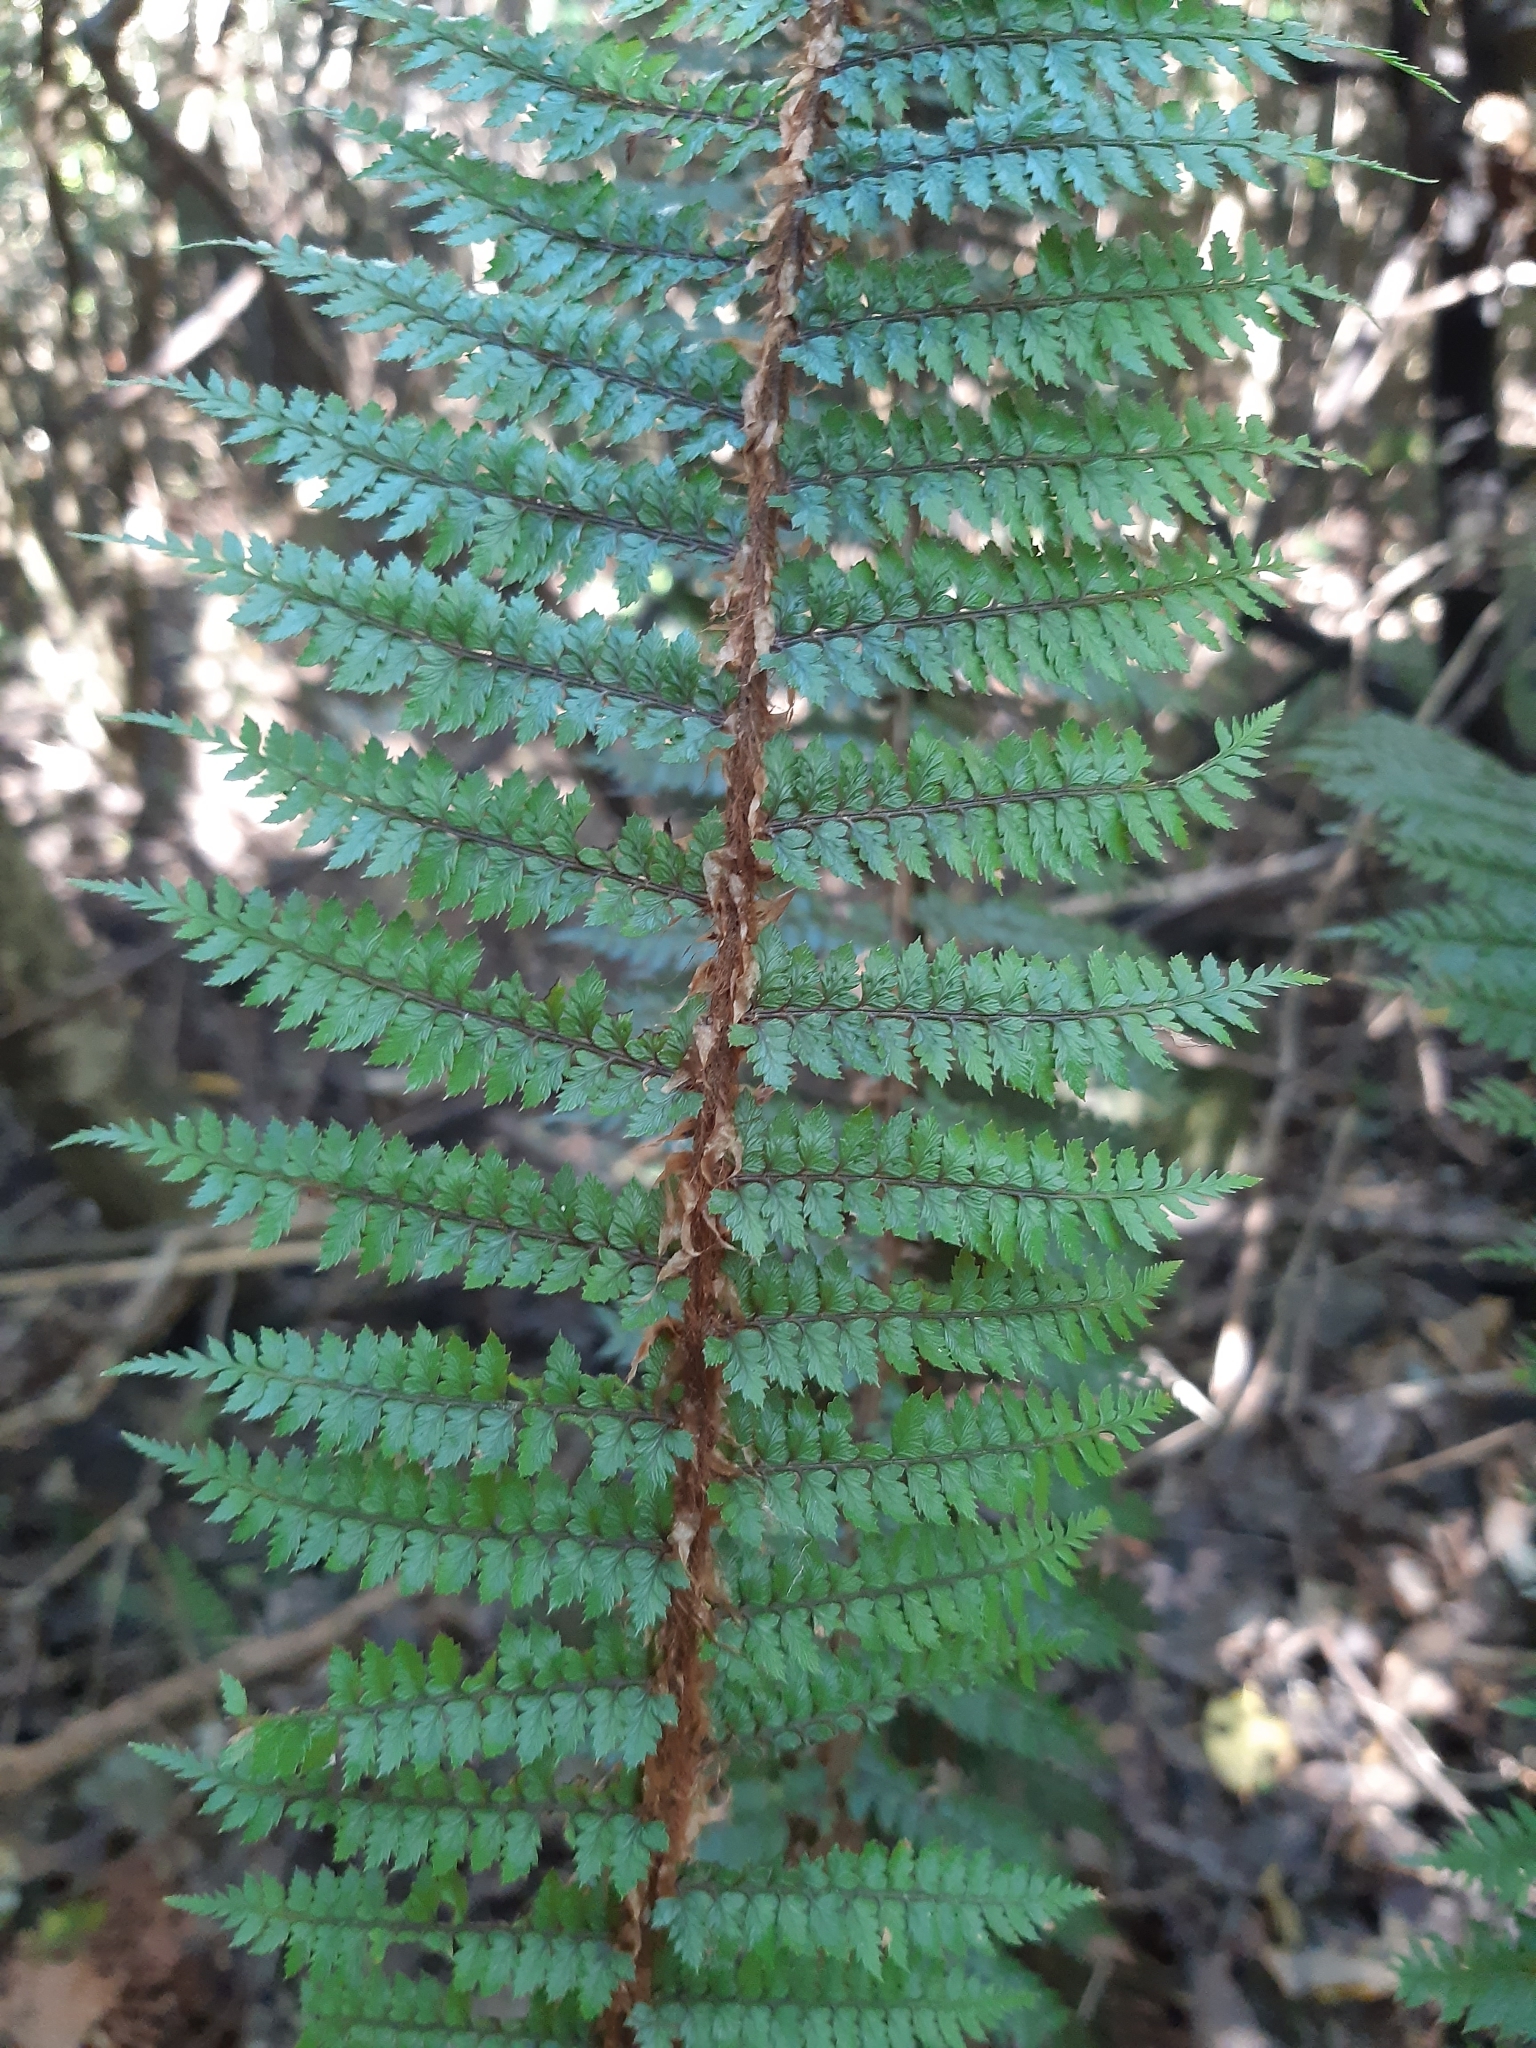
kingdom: Plantae
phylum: Tracheophyta
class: Polypodiopsida
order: Polypodiales
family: Dryopteridaceae
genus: Polystichum
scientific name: Polystichum vestitum
